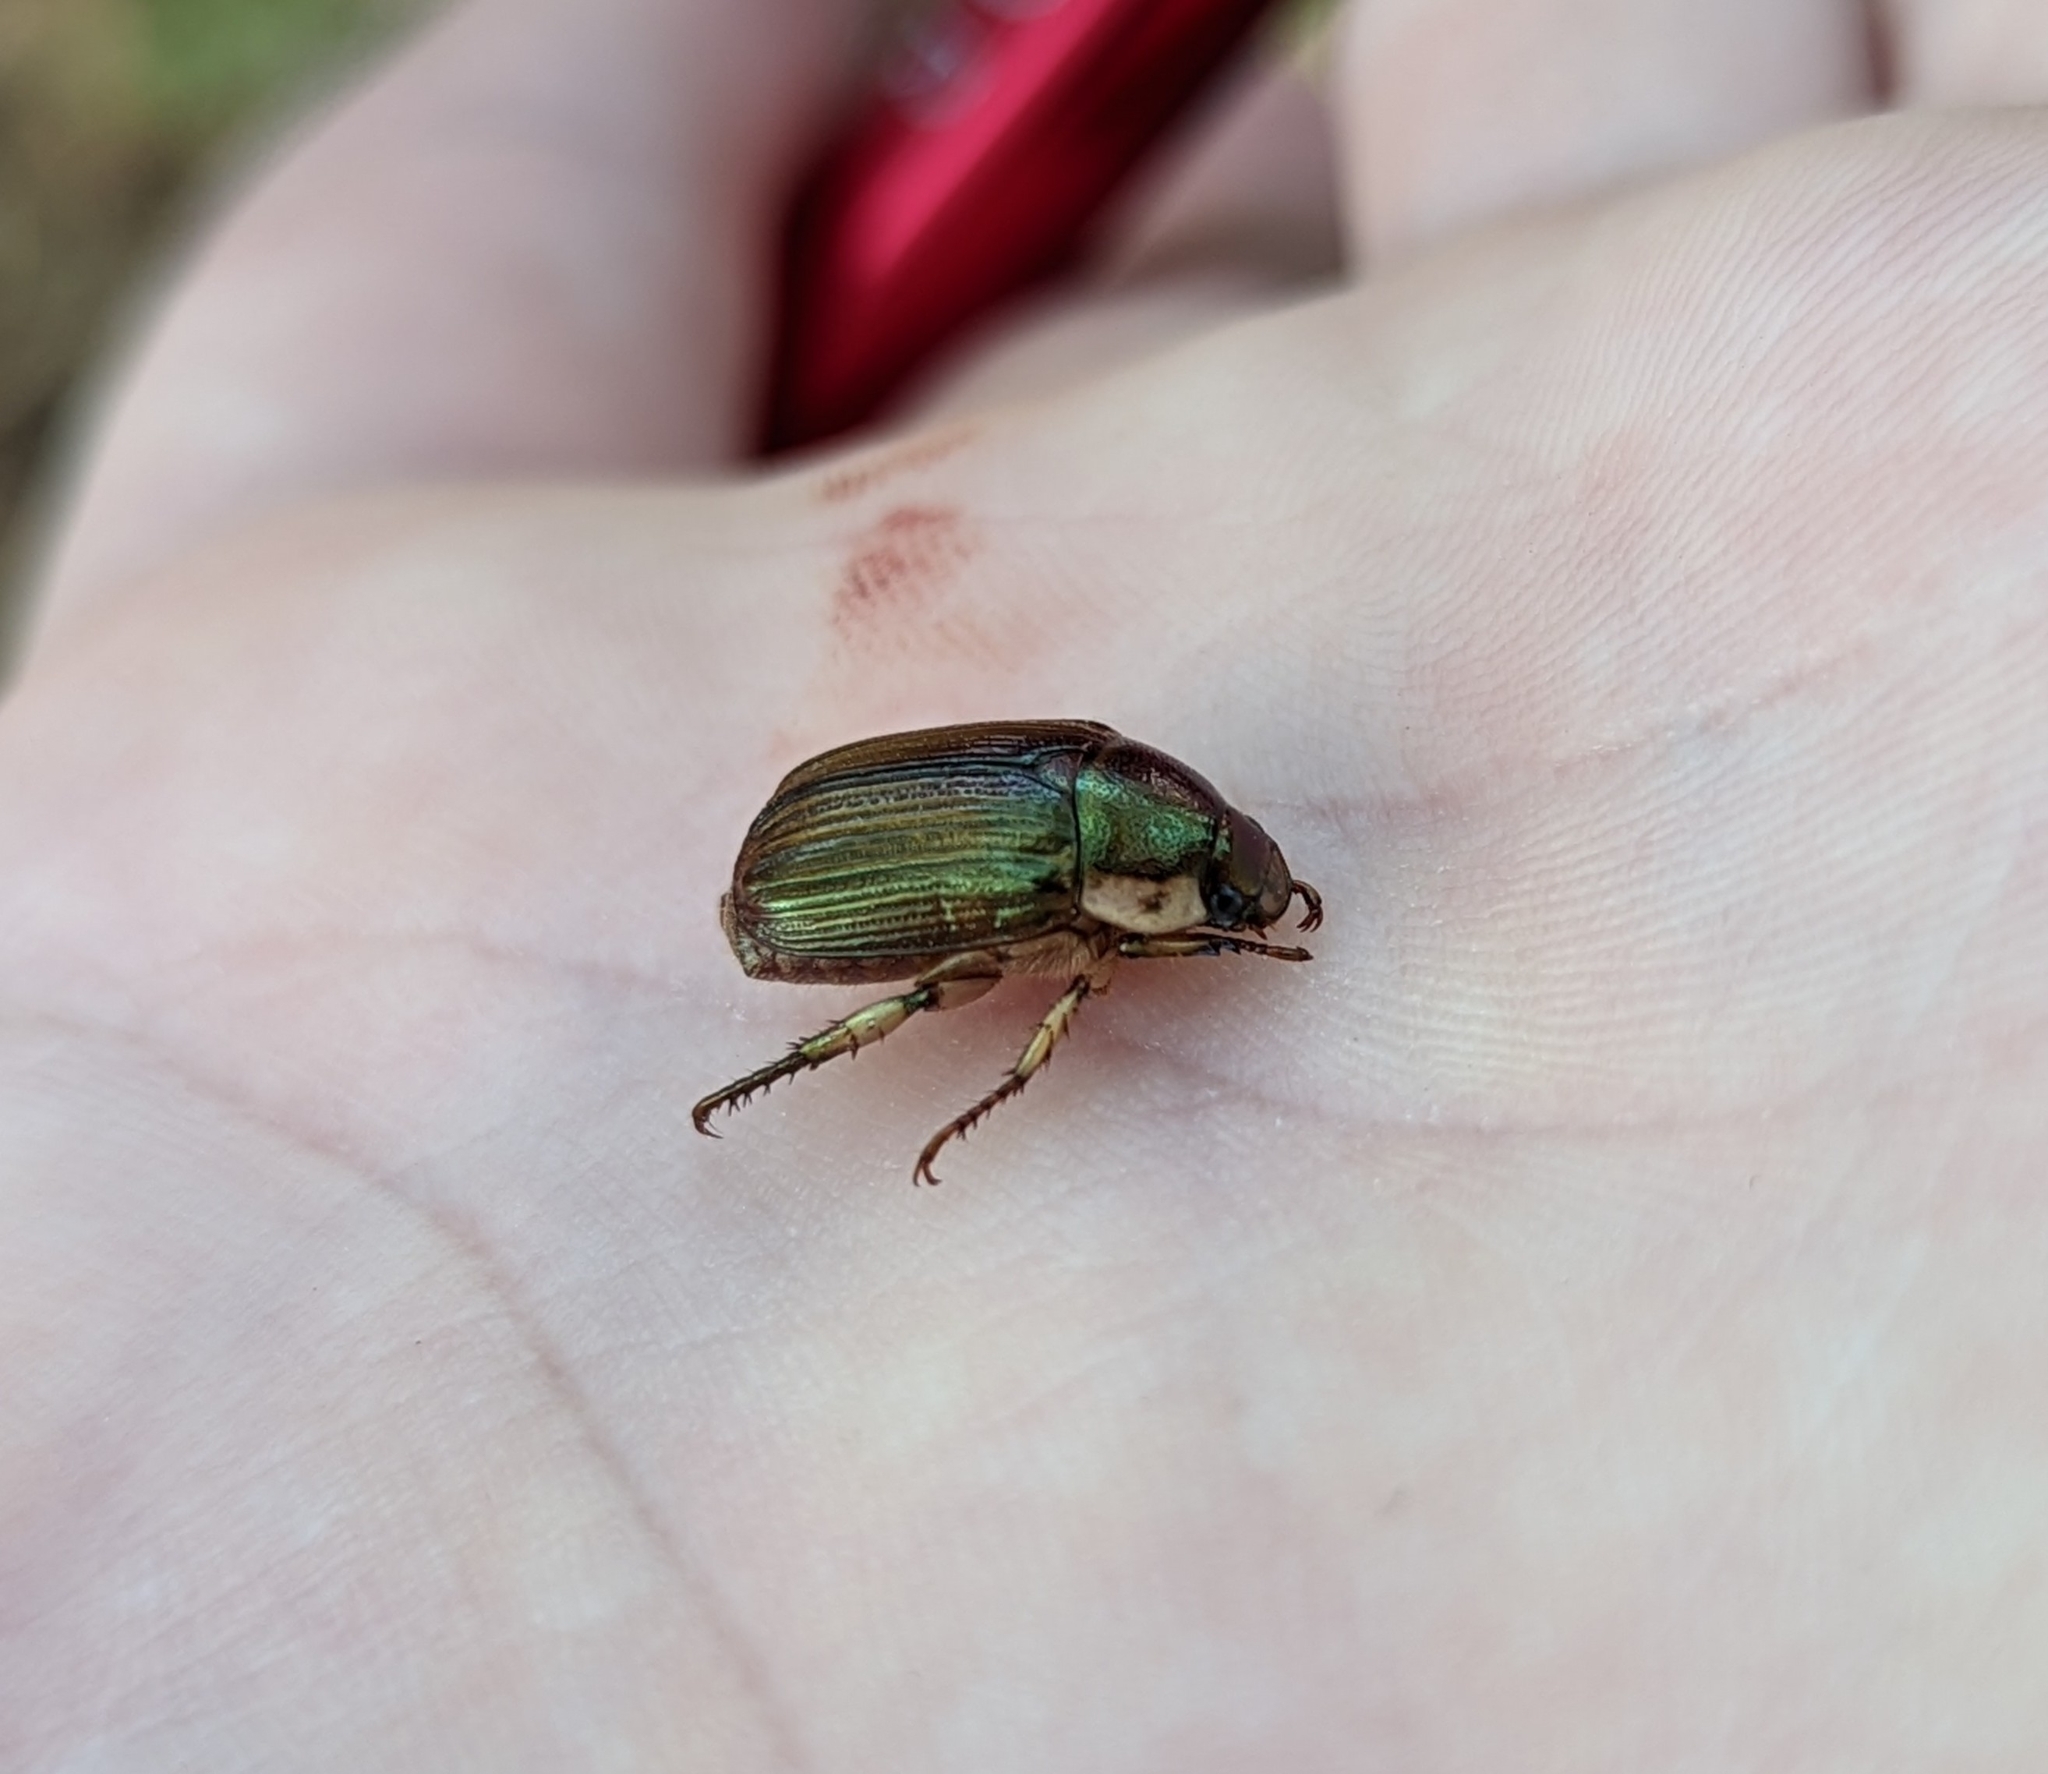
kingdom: Animalia
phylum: Arthropoda
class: Insecta
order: Coleoptera
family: Scarabaeidae
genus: Callistethus
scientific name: Callistethus marginatus
